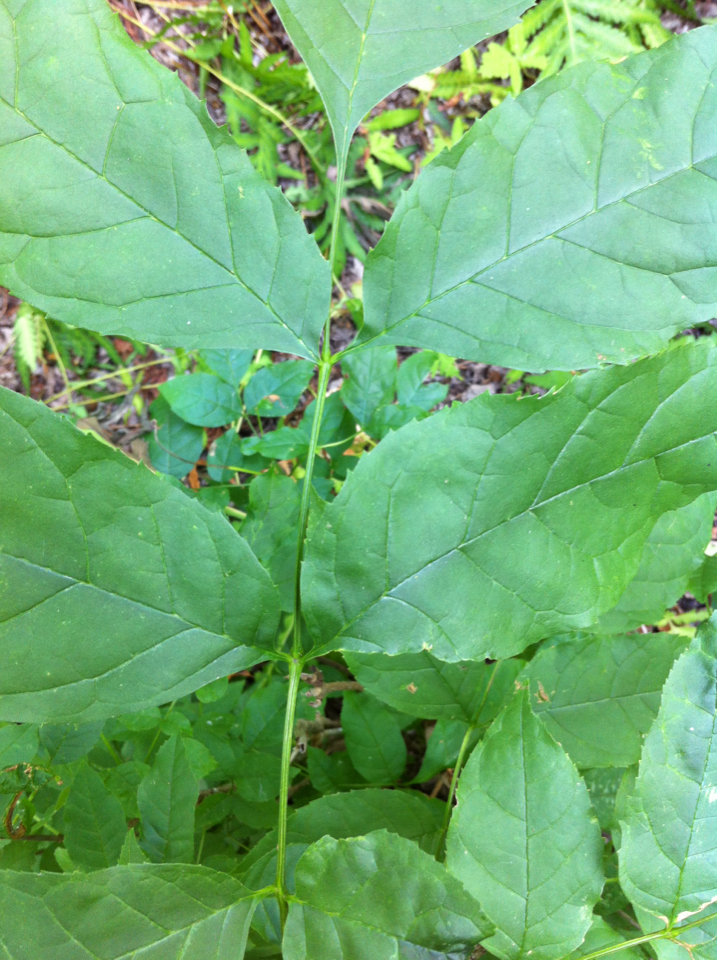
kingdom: Plantae
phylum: Tracheophyta
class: Magnoliopsida
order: Lamiales
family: Oleaceae
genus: Fraxinus
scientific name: Fraxinus pennsylvanica
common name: Green ash
